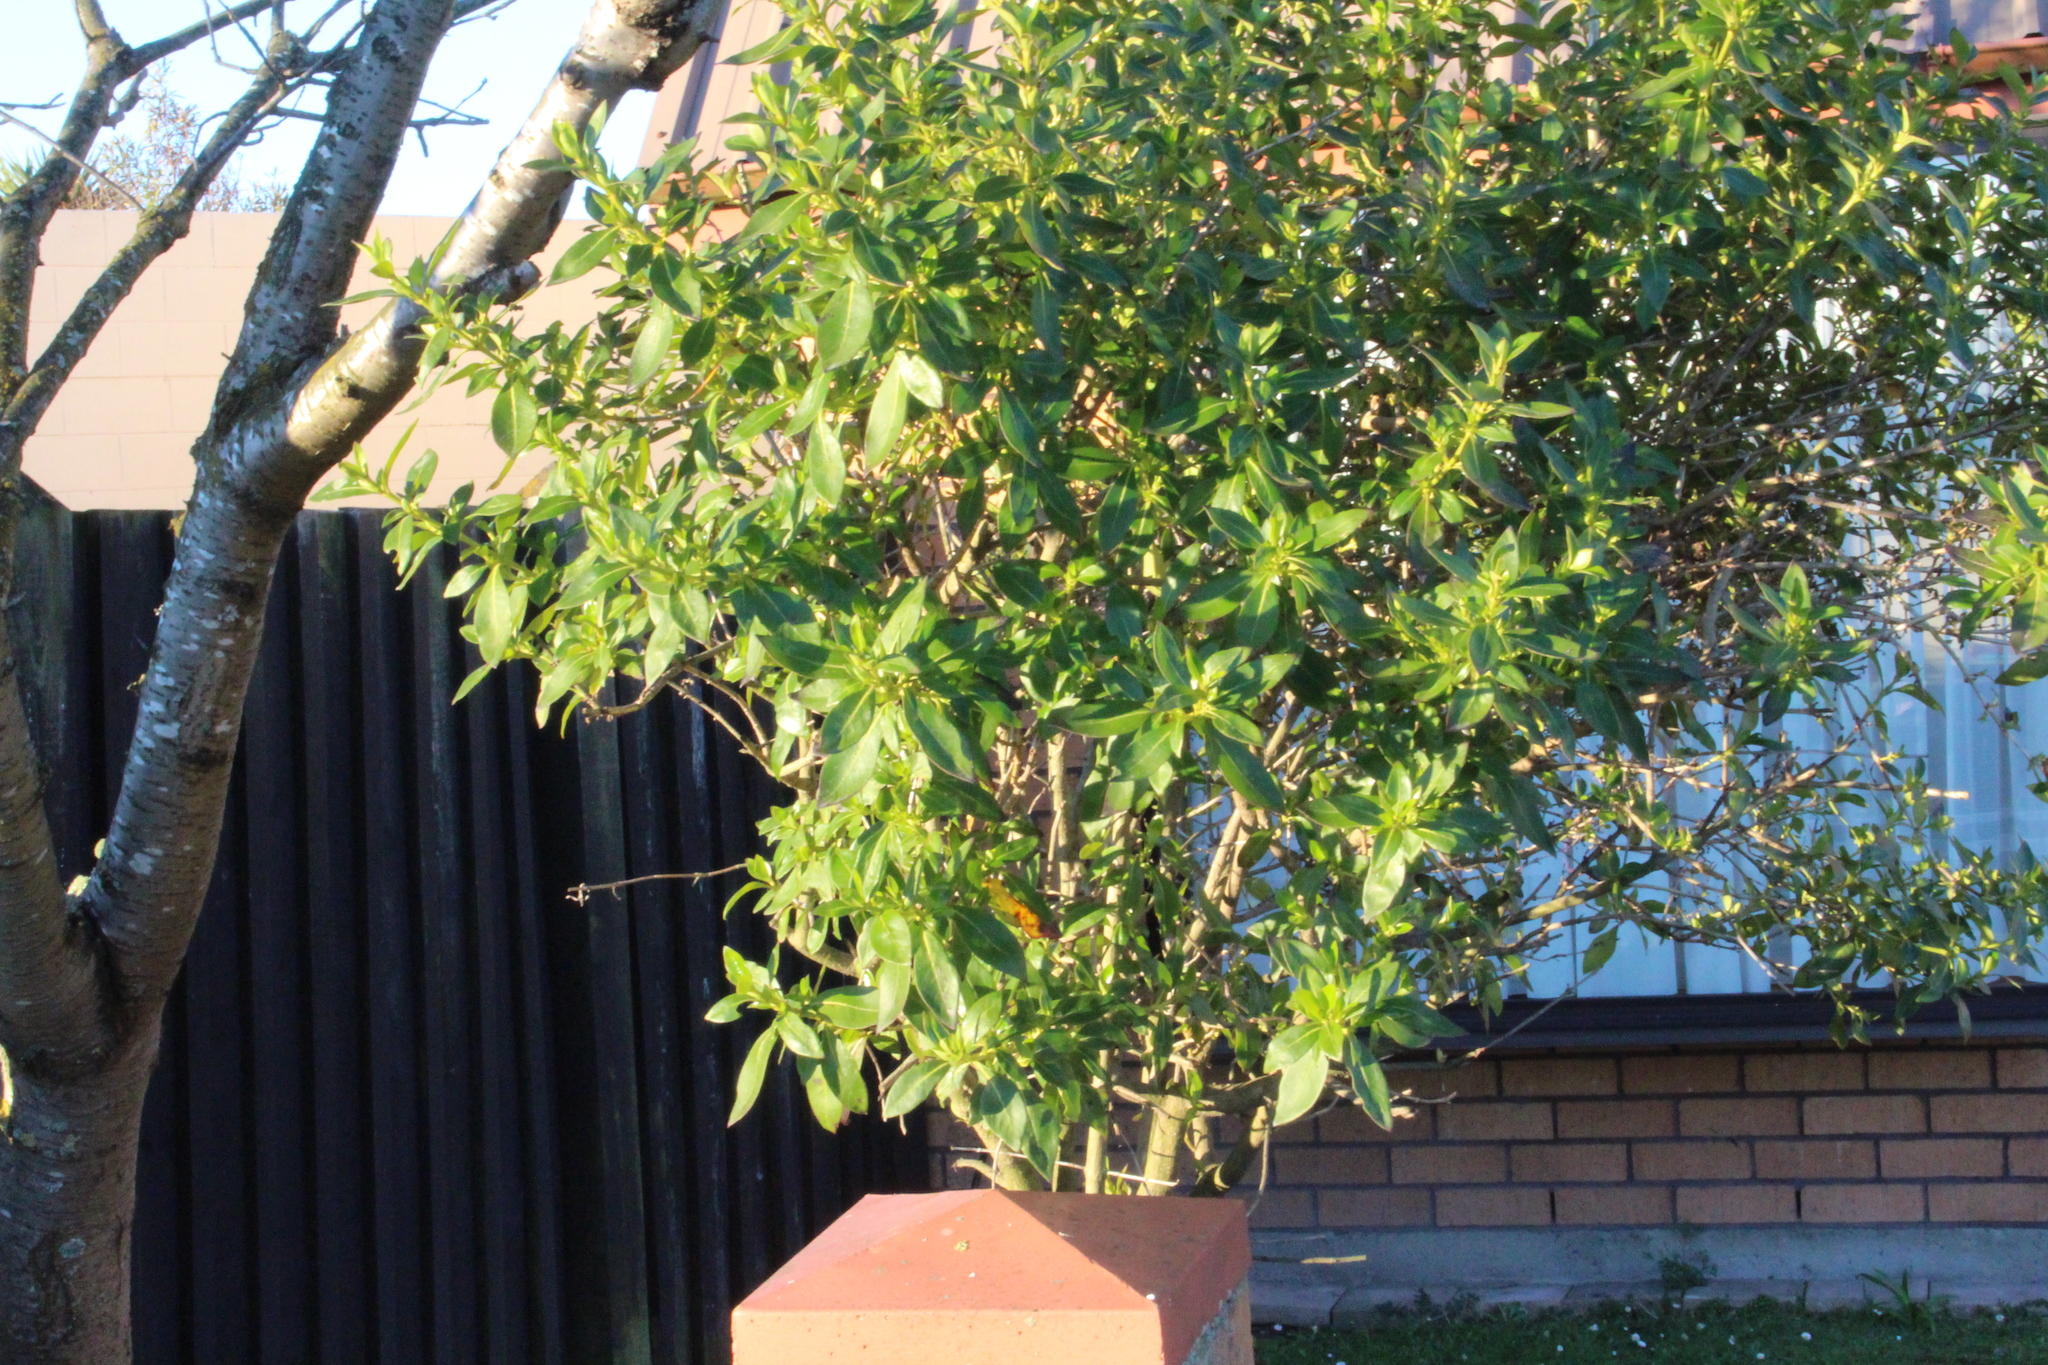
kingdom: Plantae
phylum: Tracheophyta
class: Magnoliopsida
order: Gentianales
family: Rubiaceae
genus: Coprosma
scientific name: Coprosma robusta
